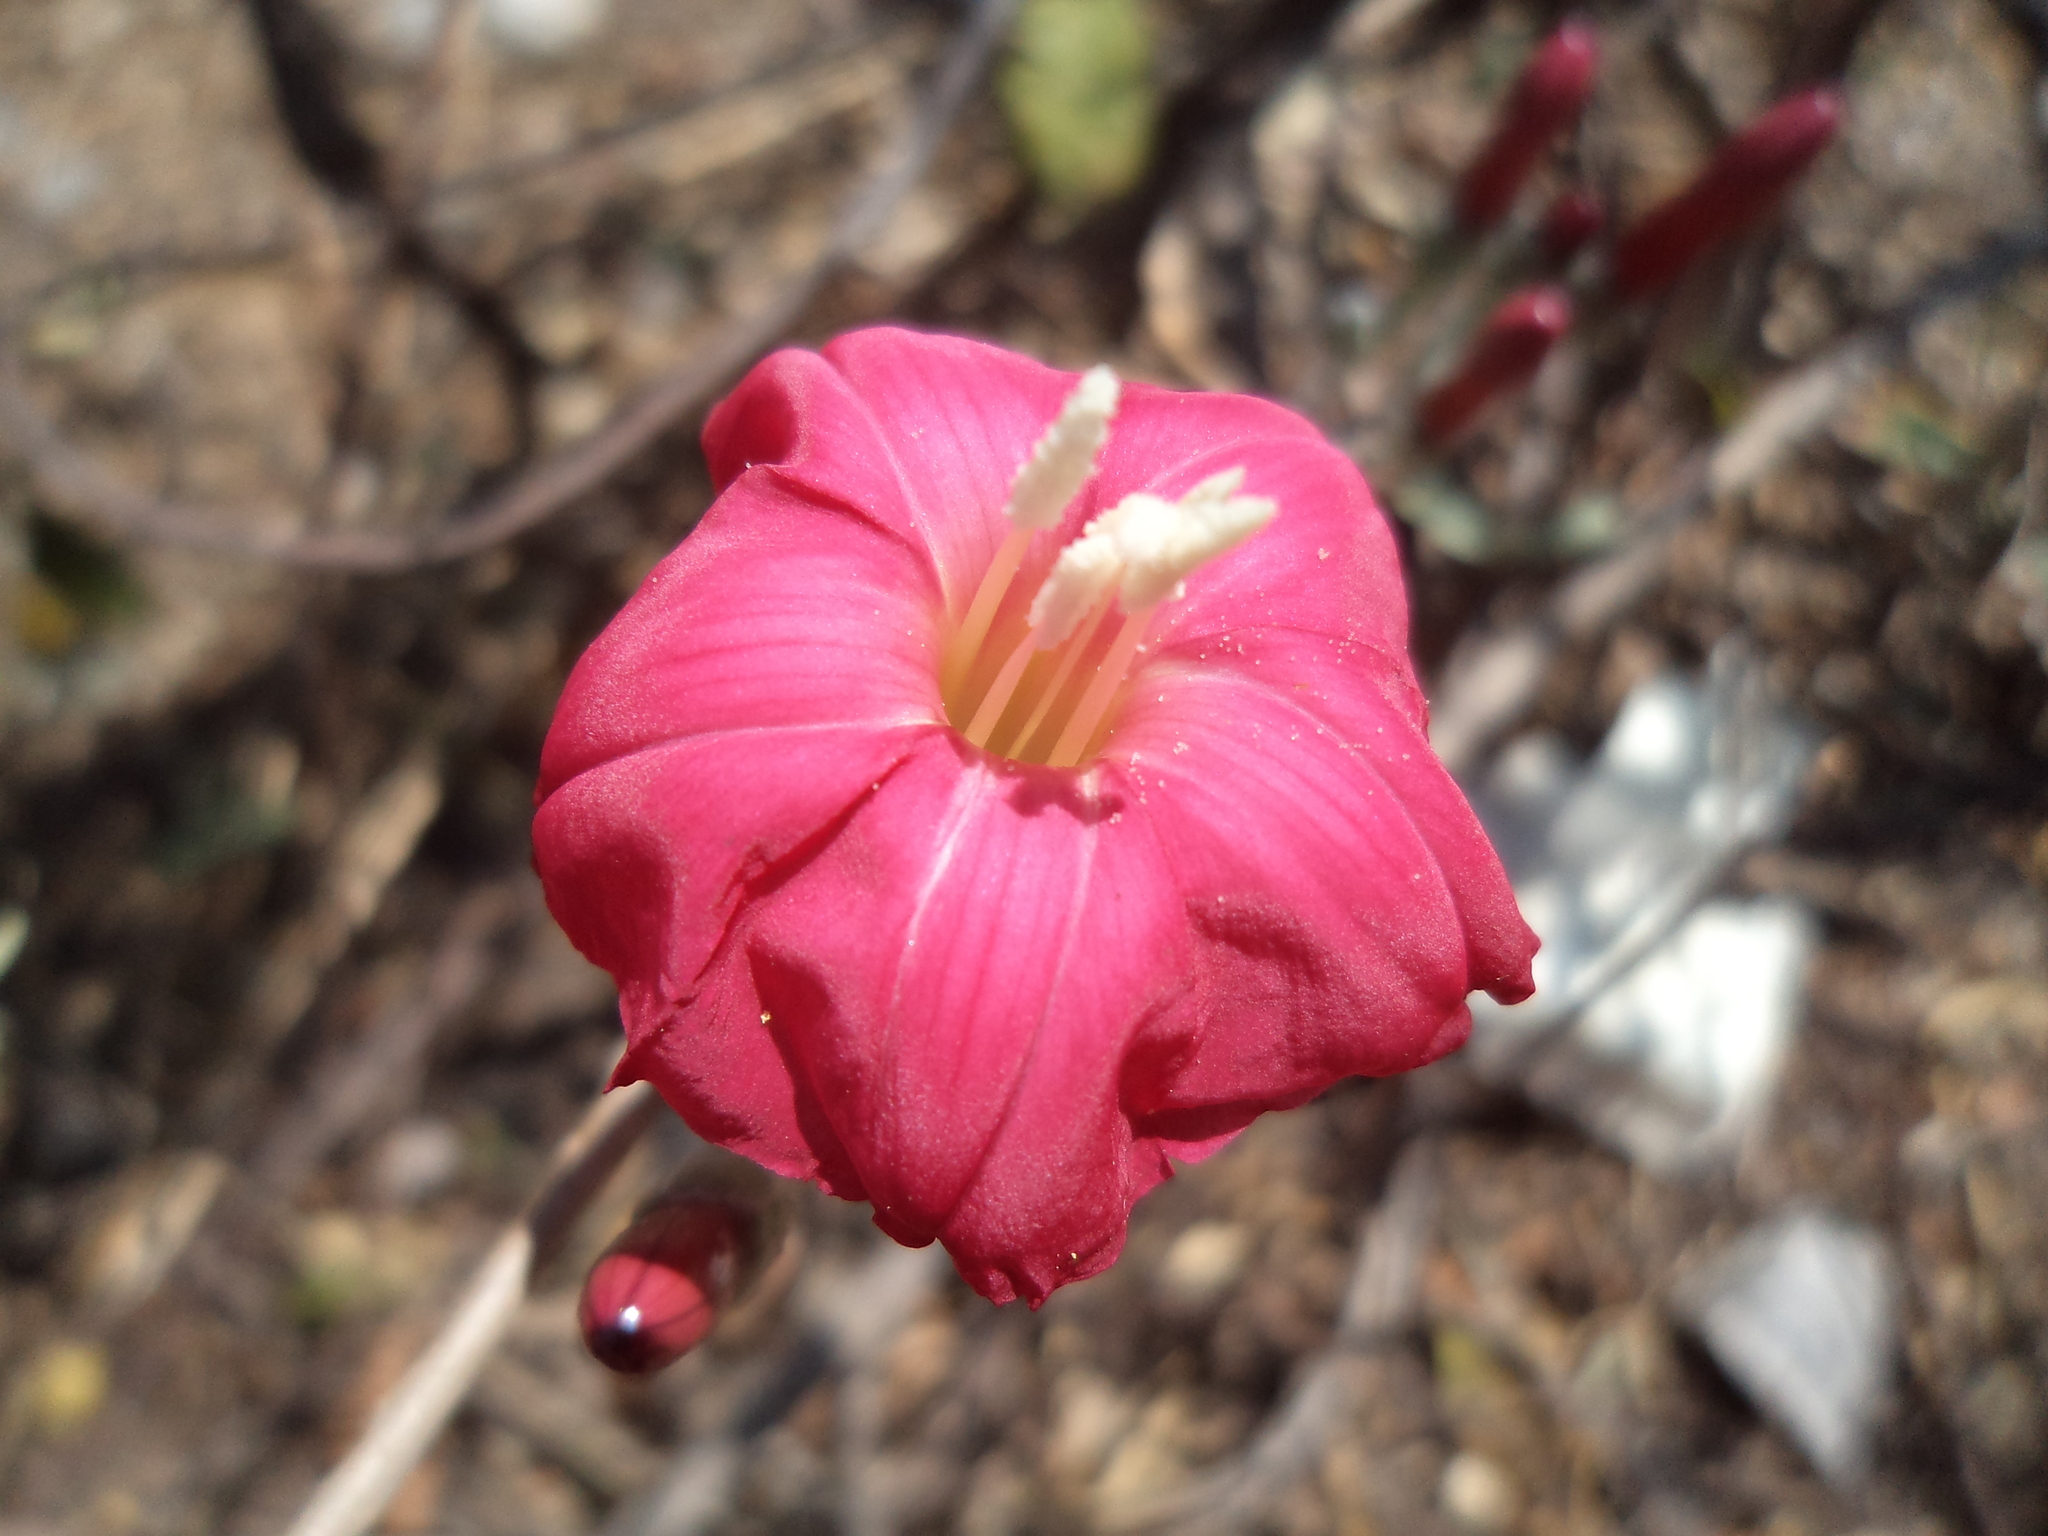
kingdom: Plantae
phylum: Tracheophyta
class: Magnoliopsida
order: Solanales
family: Convolvulaceae
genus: Ipomoea
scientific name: Ipomoea conzattii
